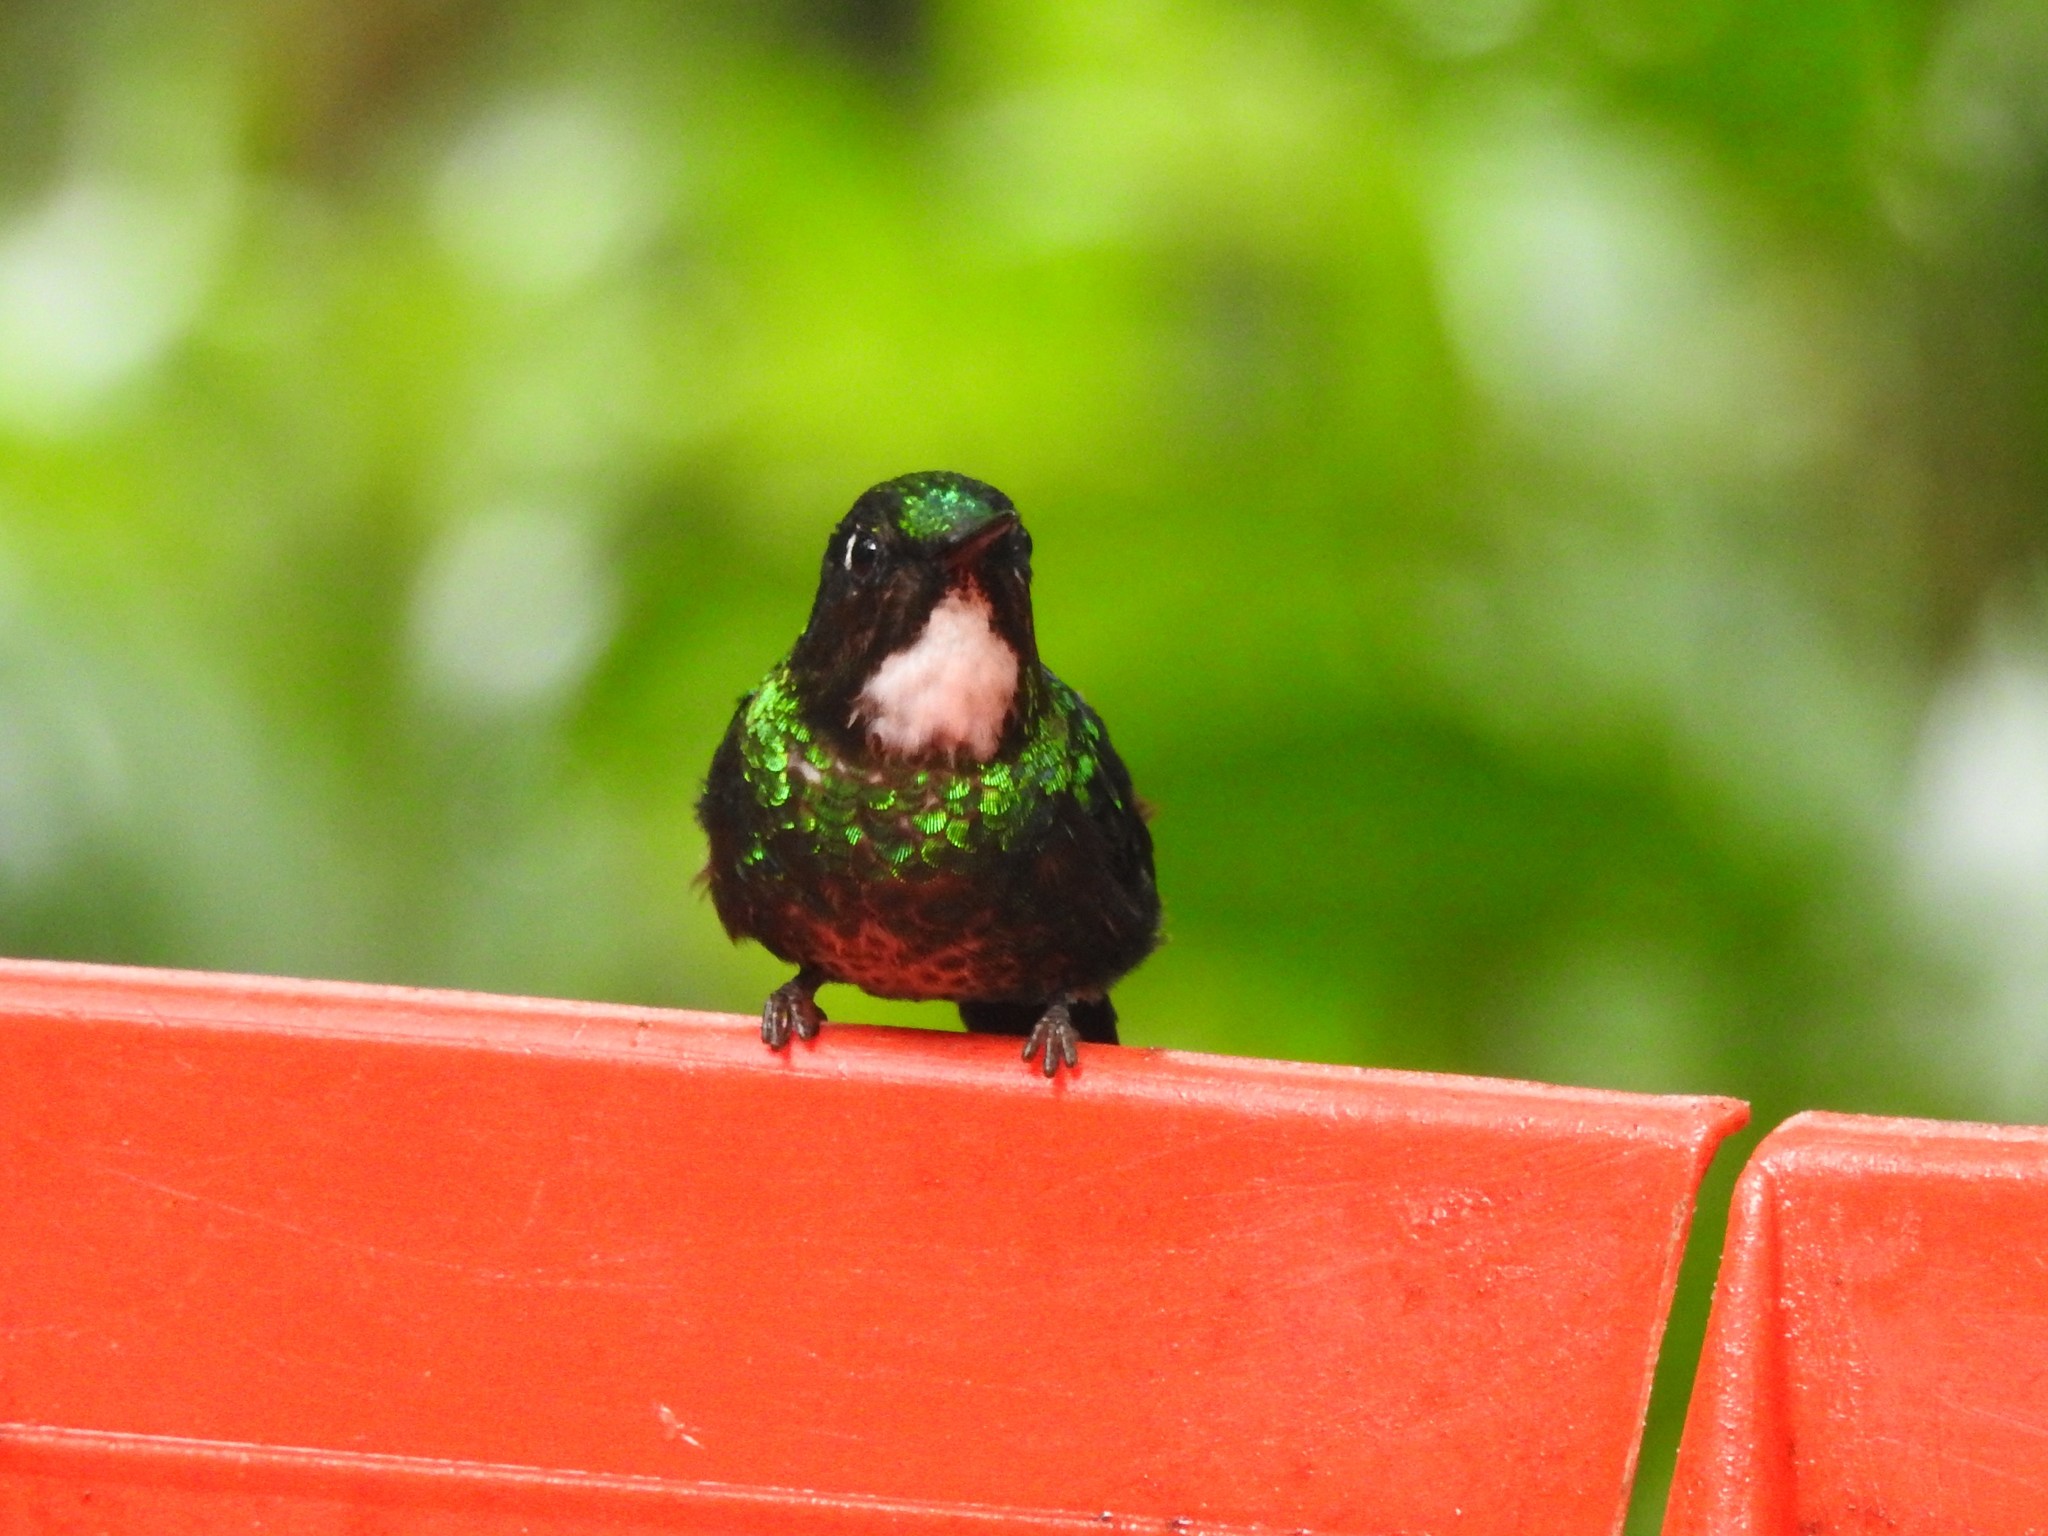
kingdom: Animalia
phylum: Chordata
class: Aves
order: Apodiformes
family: Trochilidae
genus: Heliangelus
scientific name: Heliangelus exortis
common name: Tourmaline sunangel
